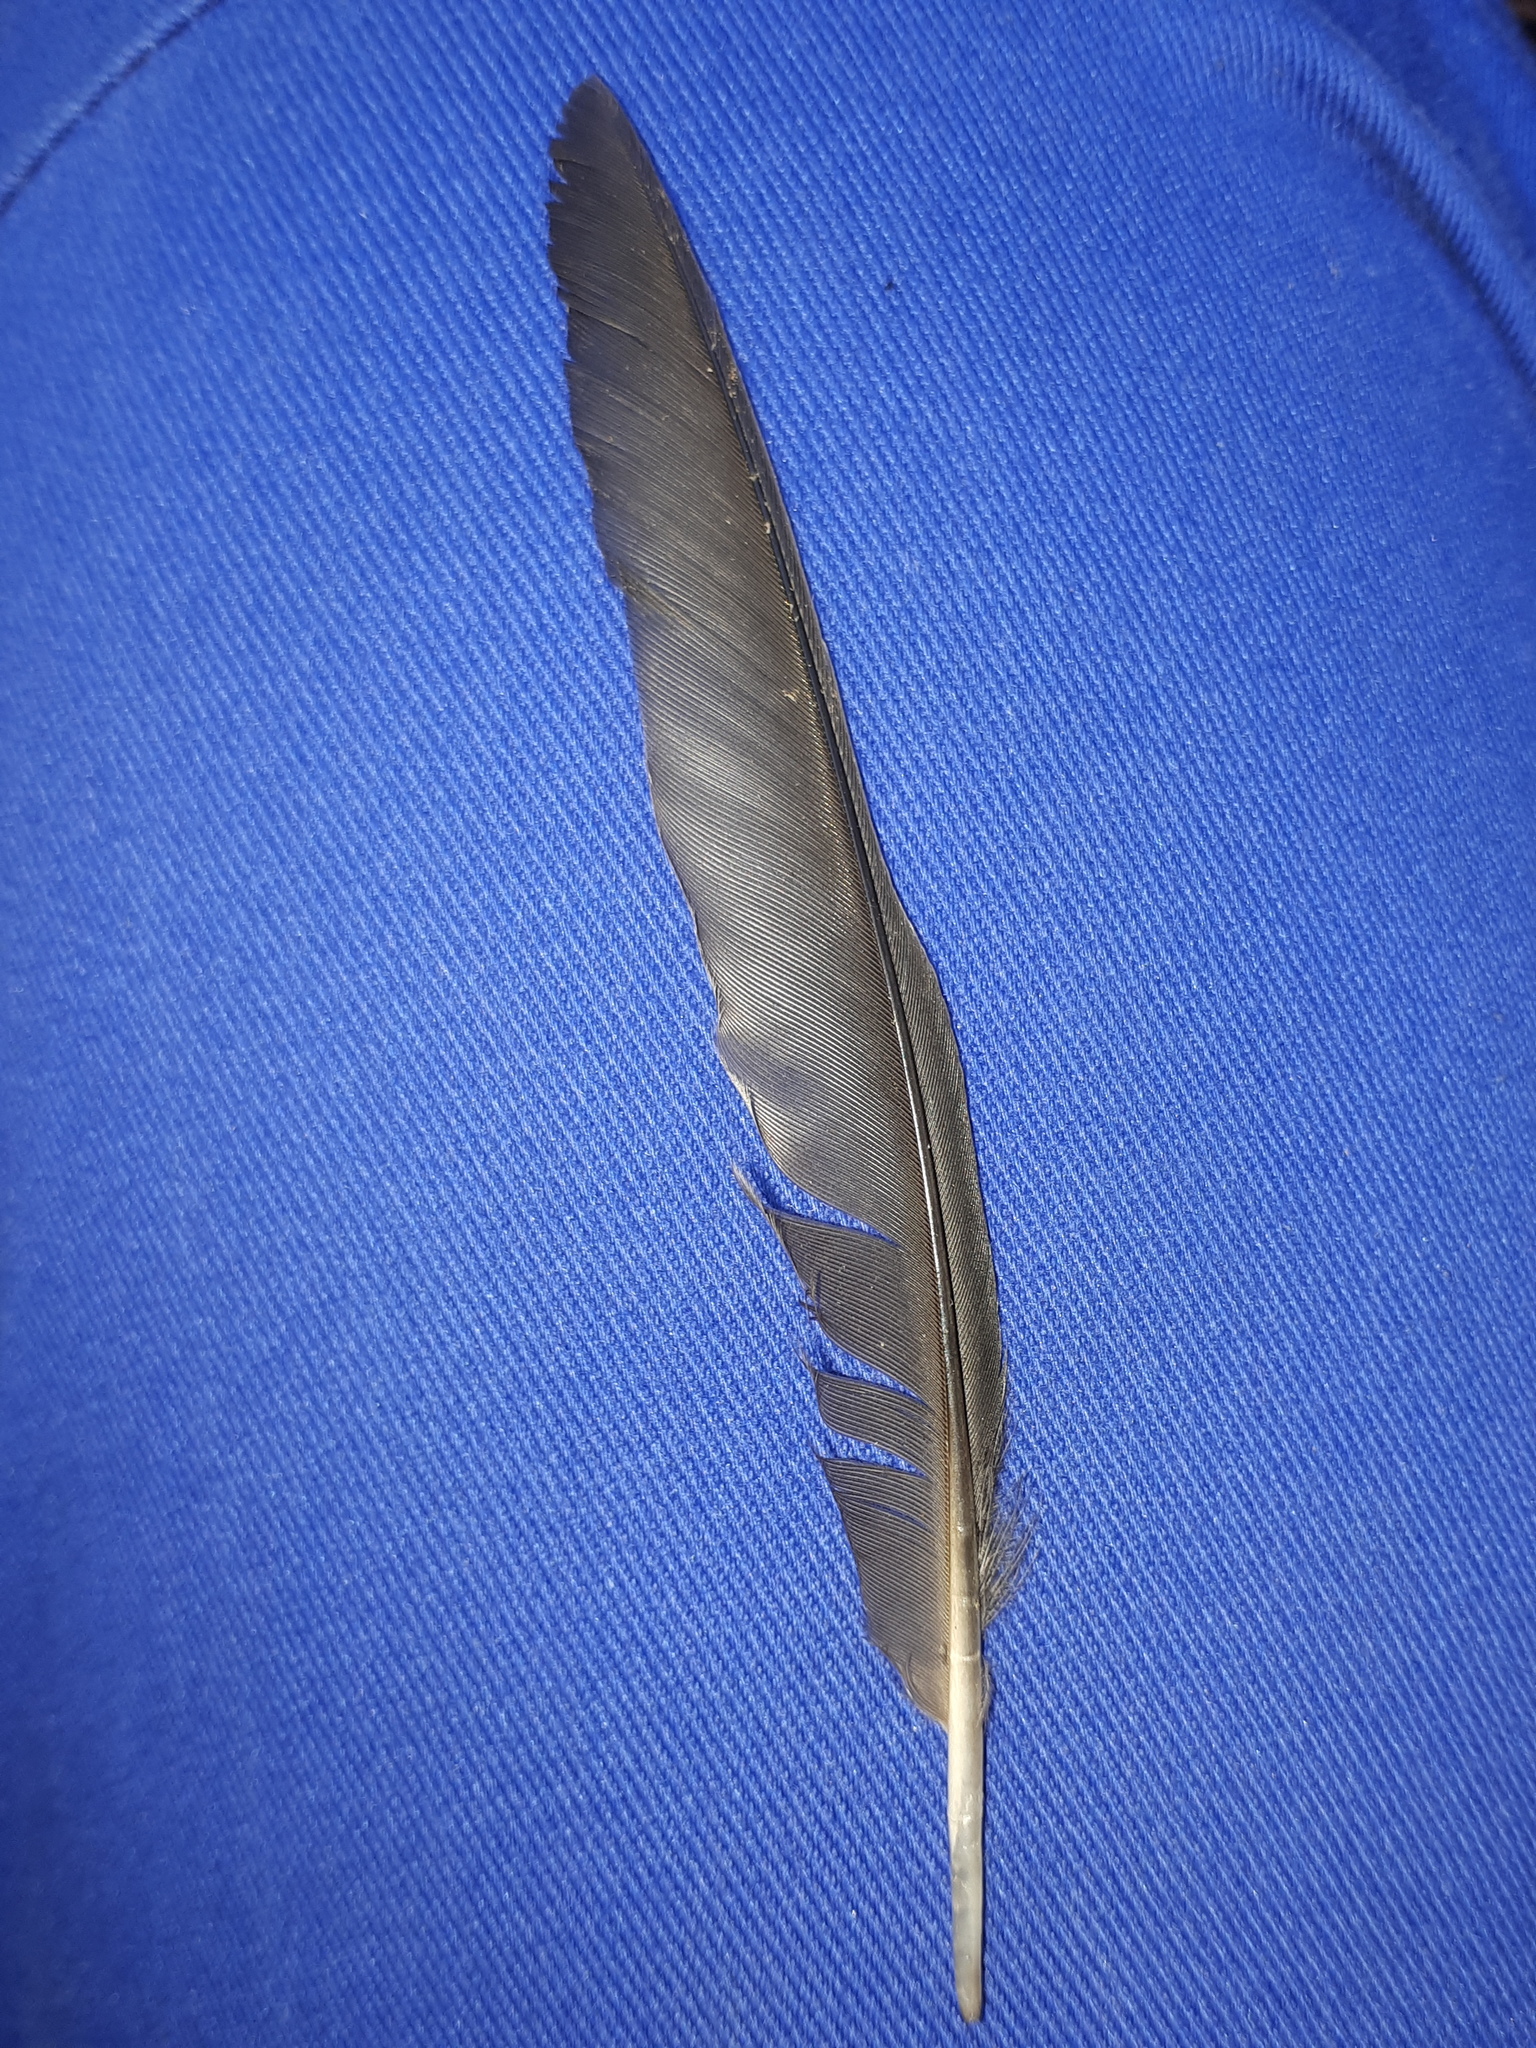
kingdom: Animalia
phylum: Chordata
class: Aves
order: Passeriformes
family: Turdidae
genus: Turdus
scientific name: Turdus merula
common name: Common blackbird
